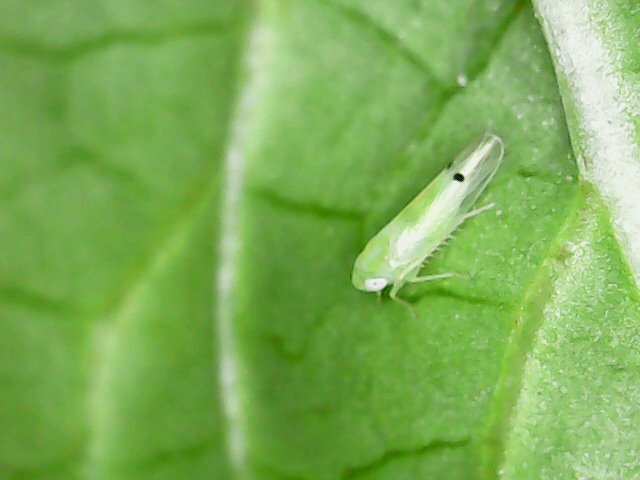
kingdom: Animalia
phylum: Arthropoda
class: Insecta
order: Hemiptera
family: Cicadellidae
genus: Amrasca
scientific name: Amrasca biguttula
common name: Indian cotton jassid
